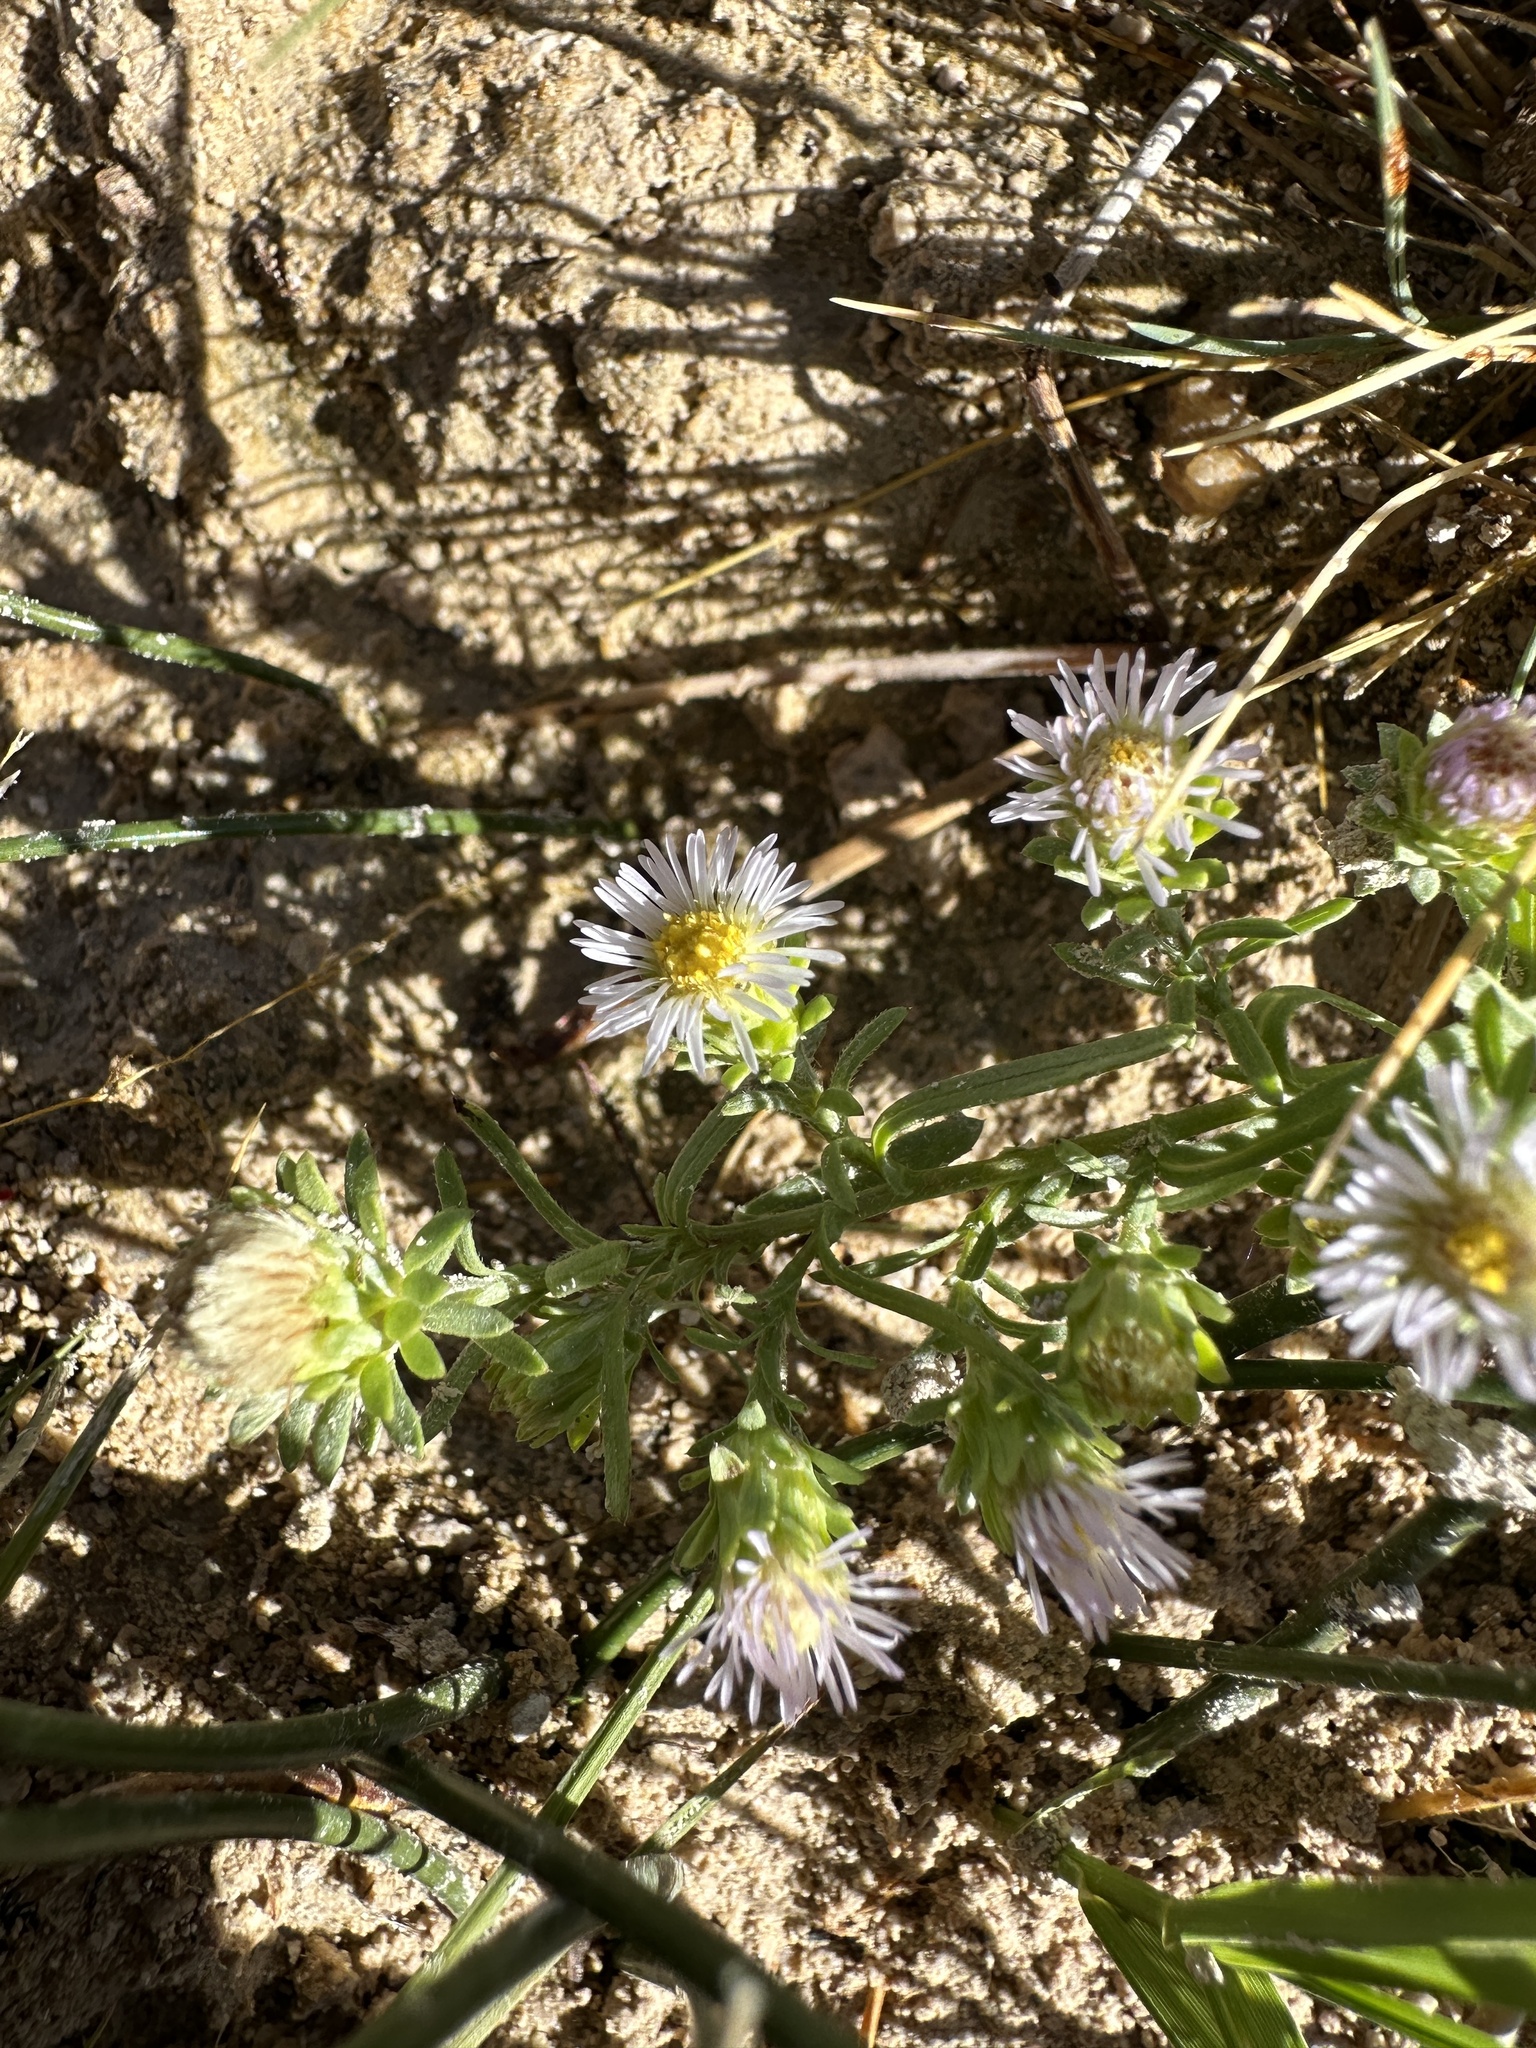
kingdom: Plantae
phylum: Tracheophyta
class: Magnoliopsida
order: Asterales
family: Asteraceae
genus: Symphyotrichum
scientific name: Symphyotrichum frondosum
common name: Leafy aster
